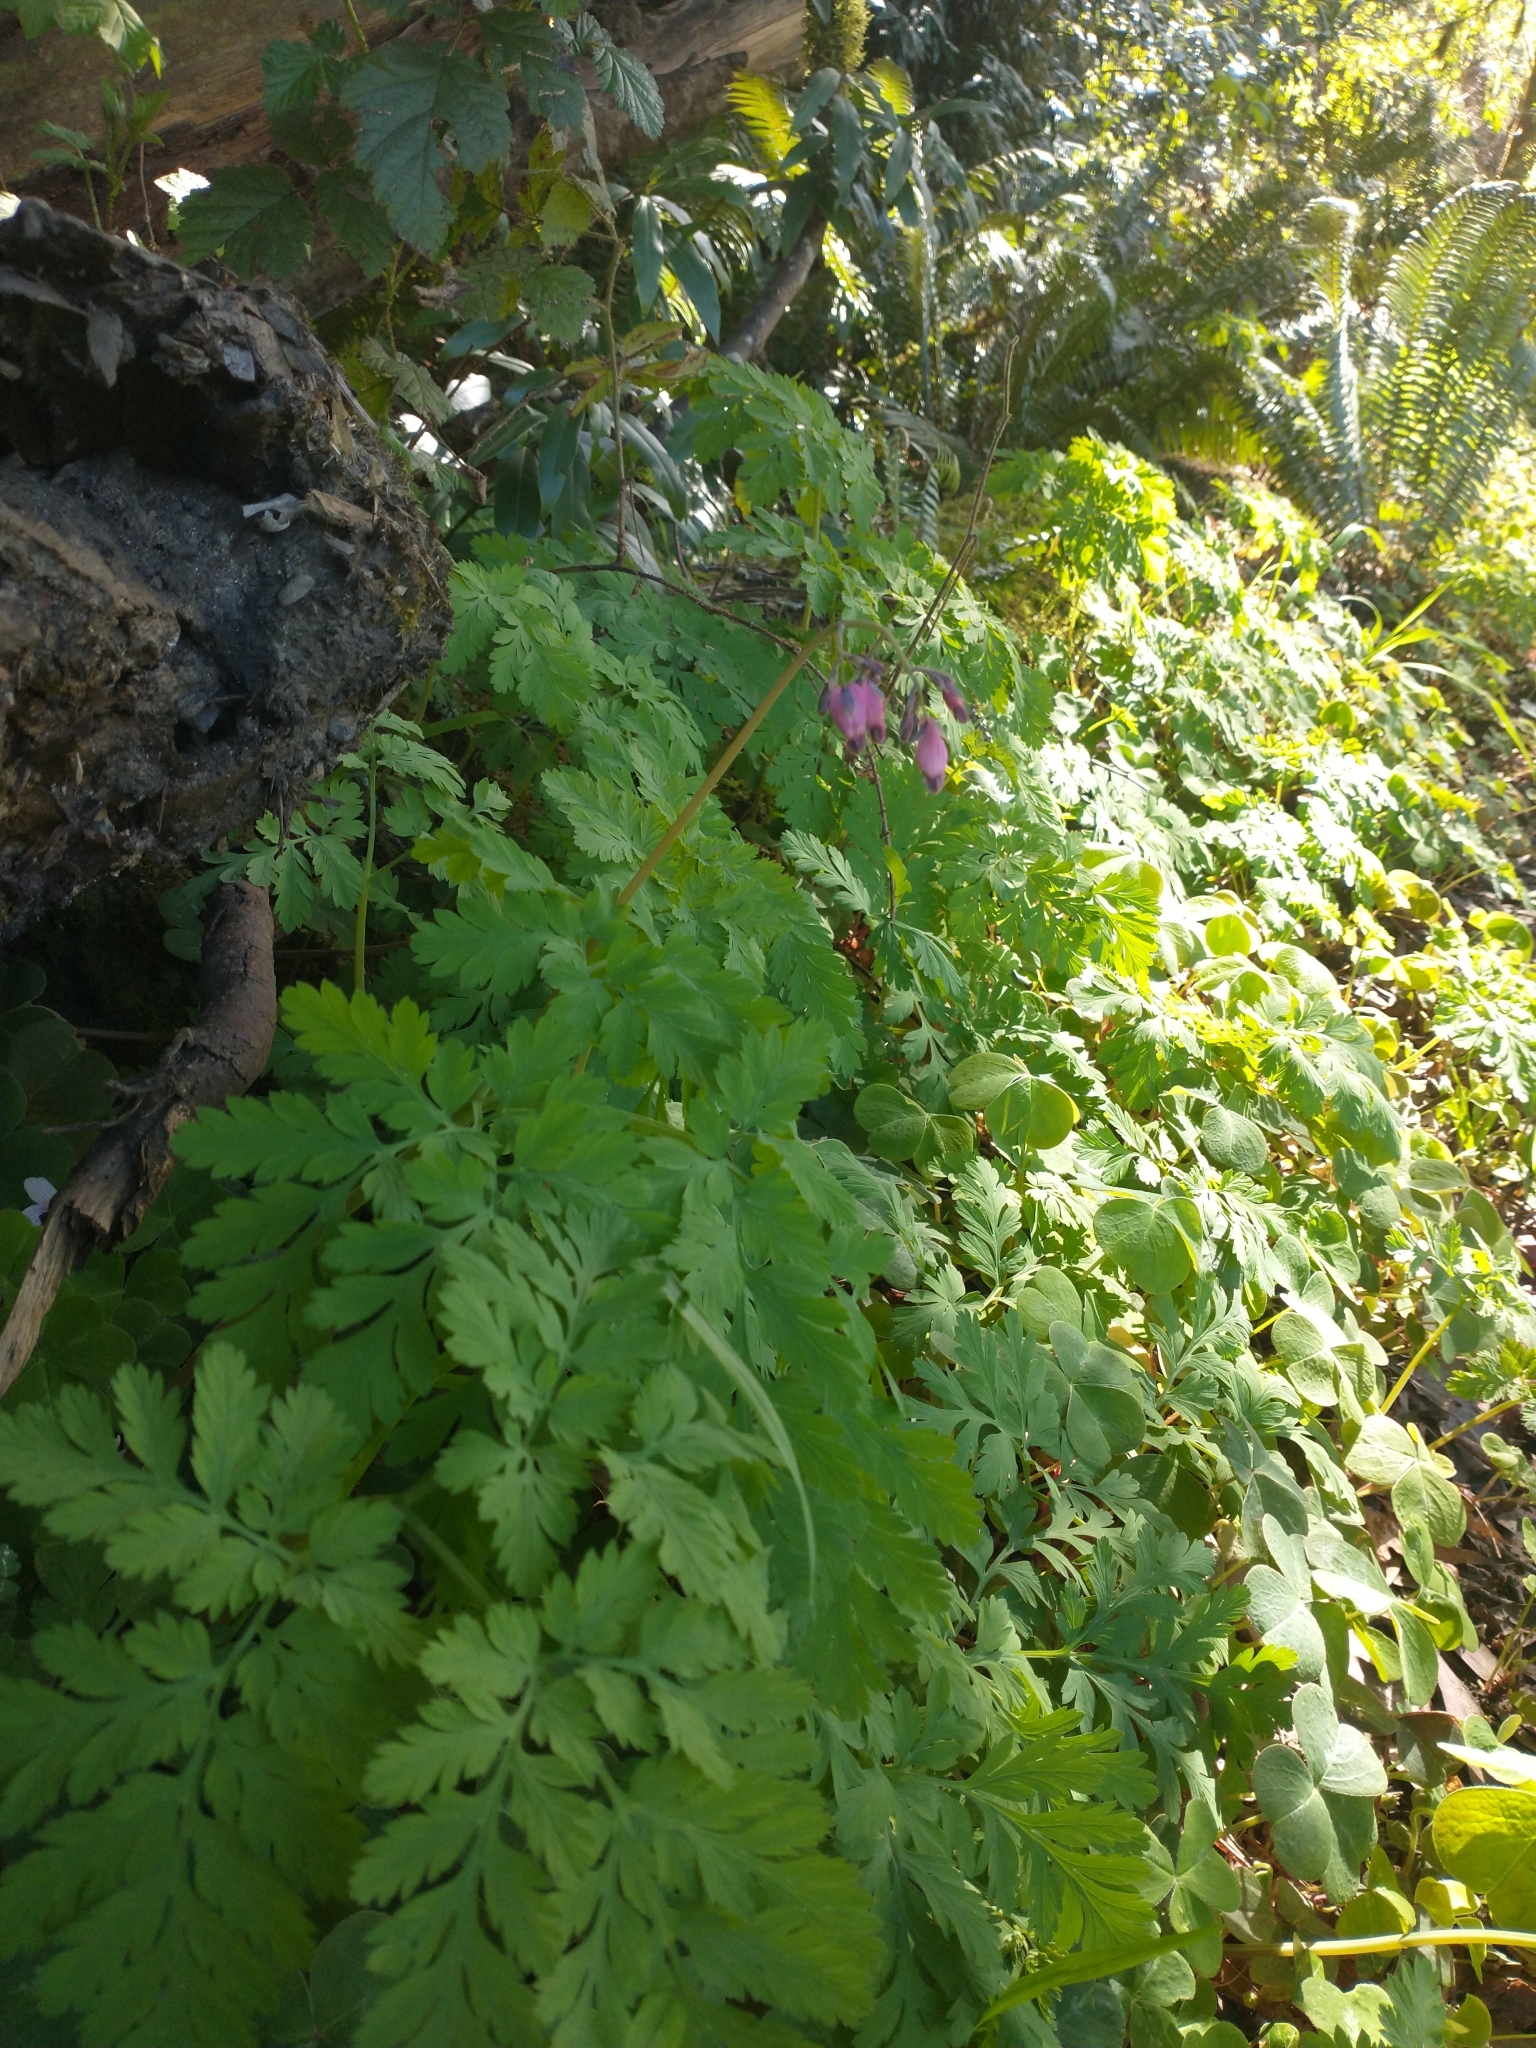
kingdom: Plantae
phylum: Tracheophyta
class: Magnoliopsida
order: Ranunculales
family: Papaveraceae
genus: Dicentra
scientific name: Dicentra formosa
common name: Bleeding-heart
